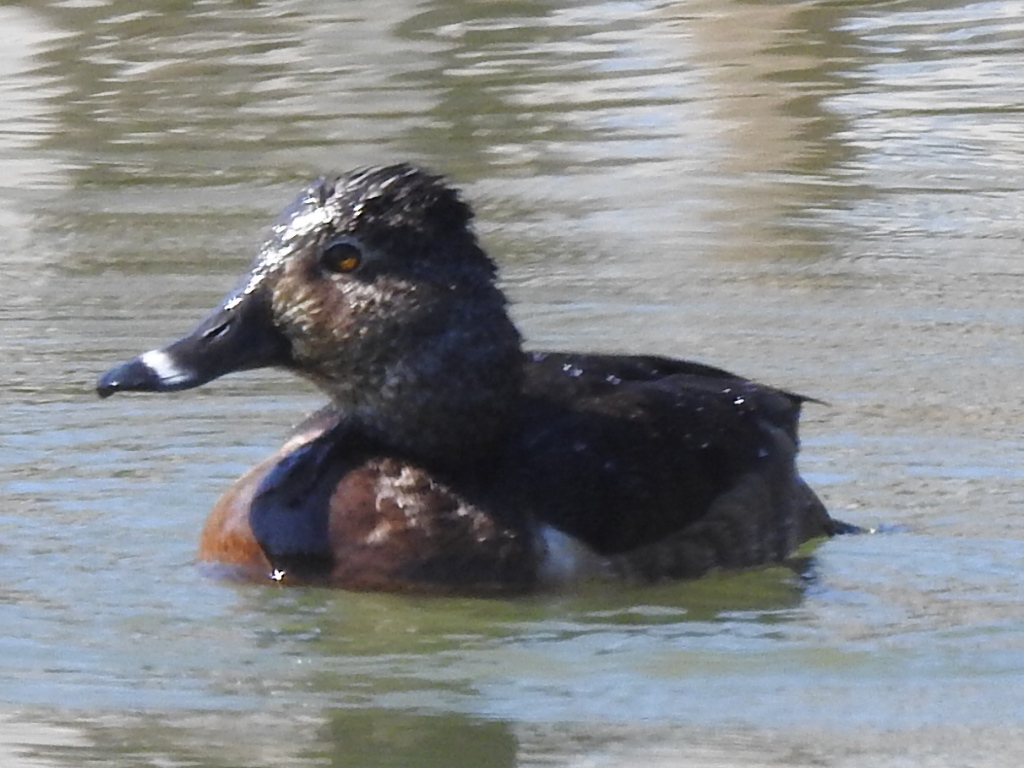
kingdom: Animalia
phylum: Chordata
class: Aves
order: Anseriformes
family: Anatidae
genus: Aythya
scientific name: Aythya collaris
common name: Ring-necked duck
